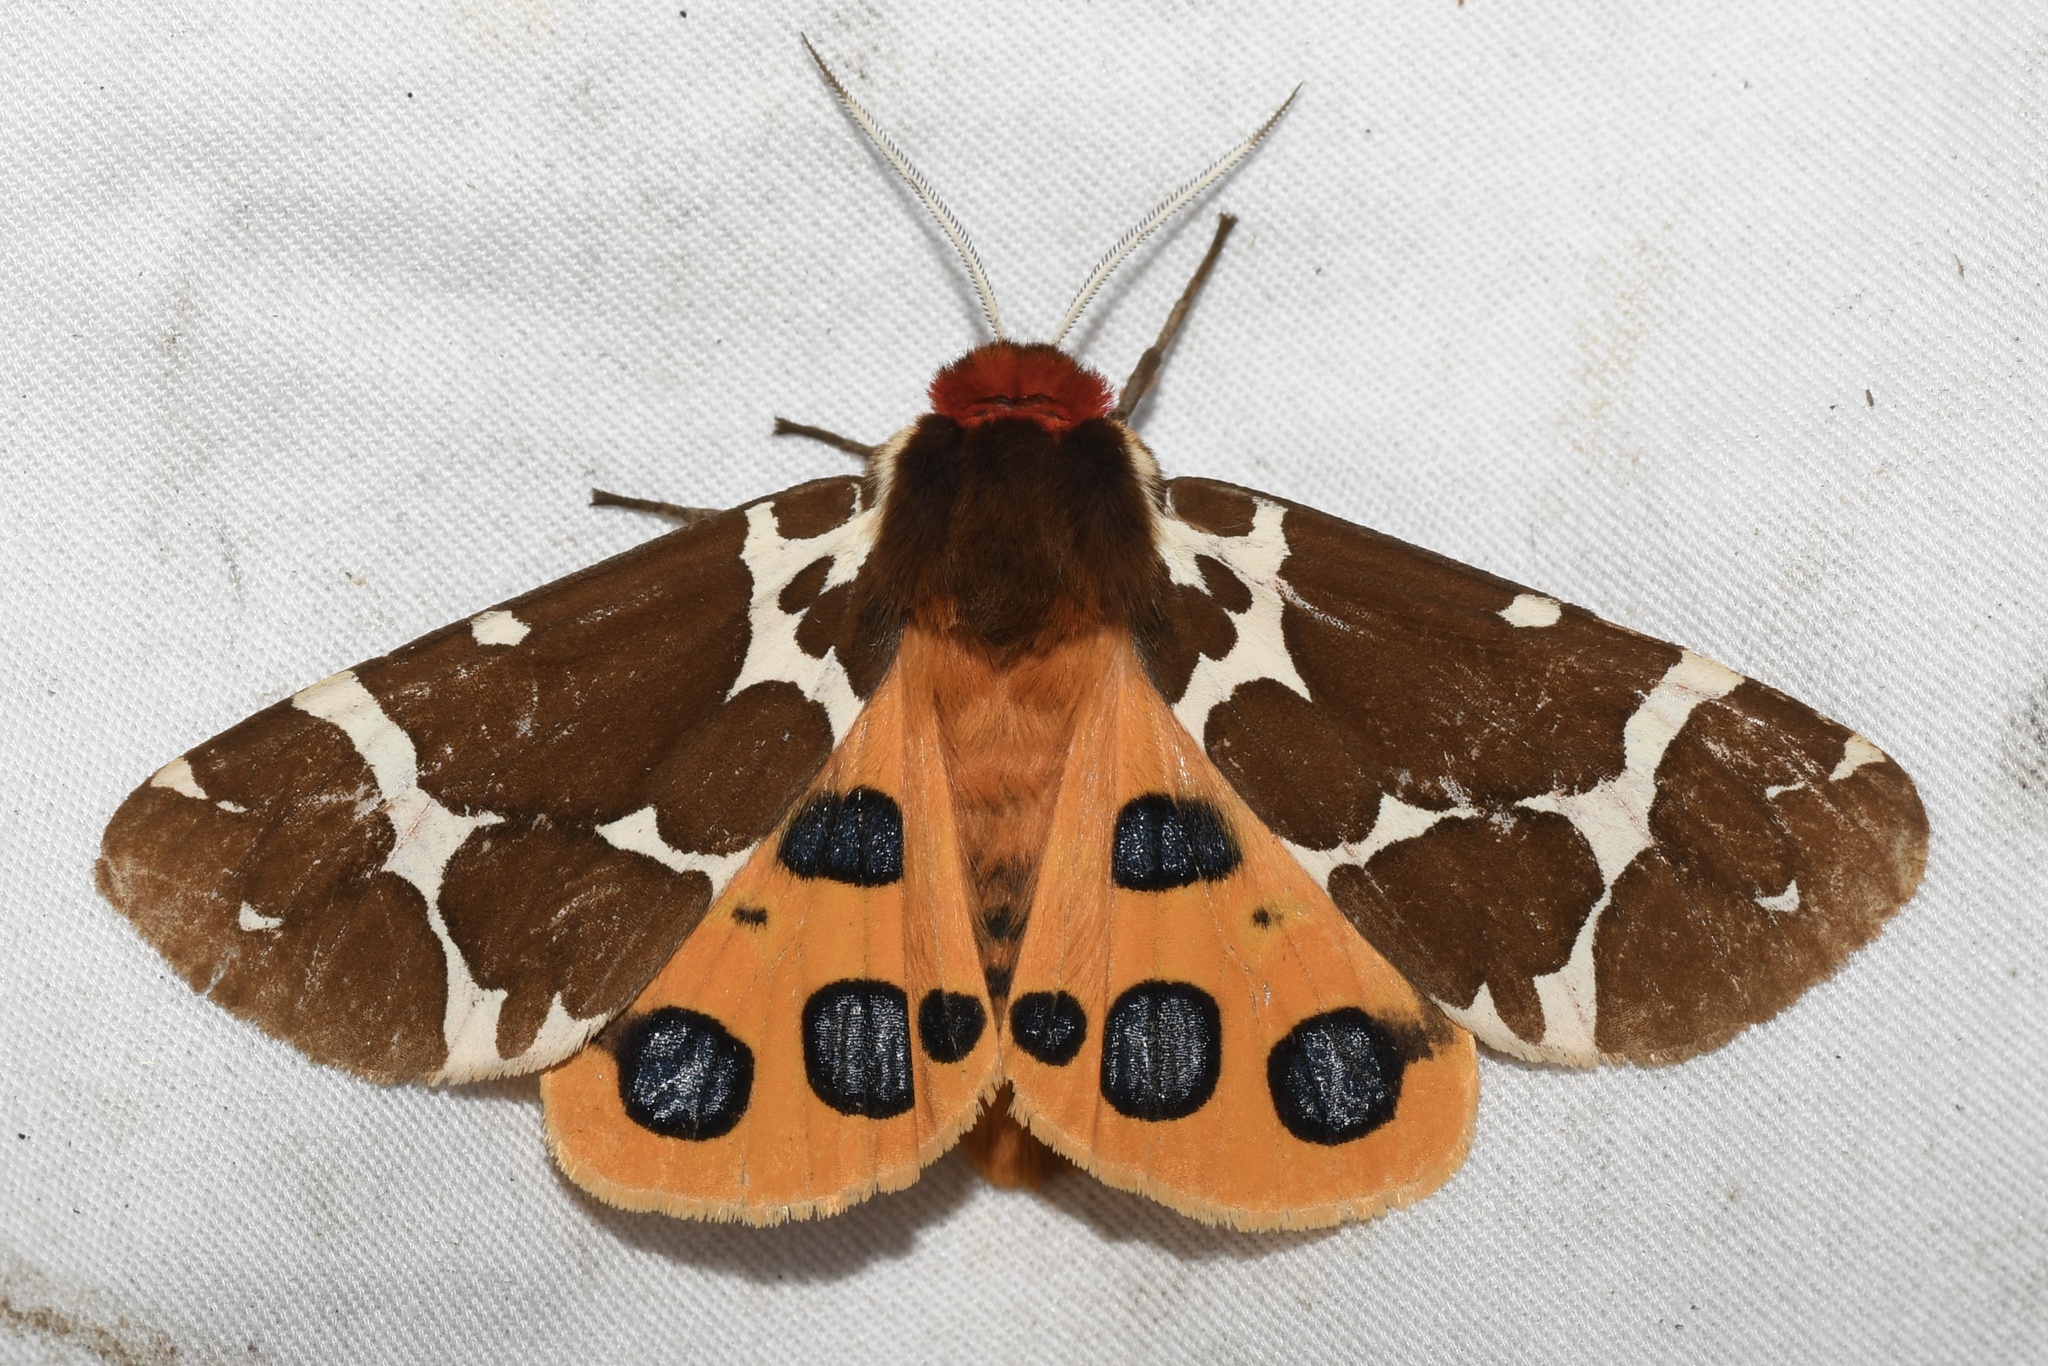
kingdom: Animalia
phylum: Arthropoda
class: Insecta
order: Lepidoptera
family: Erebidae
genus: Arctia
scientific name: Arctia caja
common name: Garden tiger
